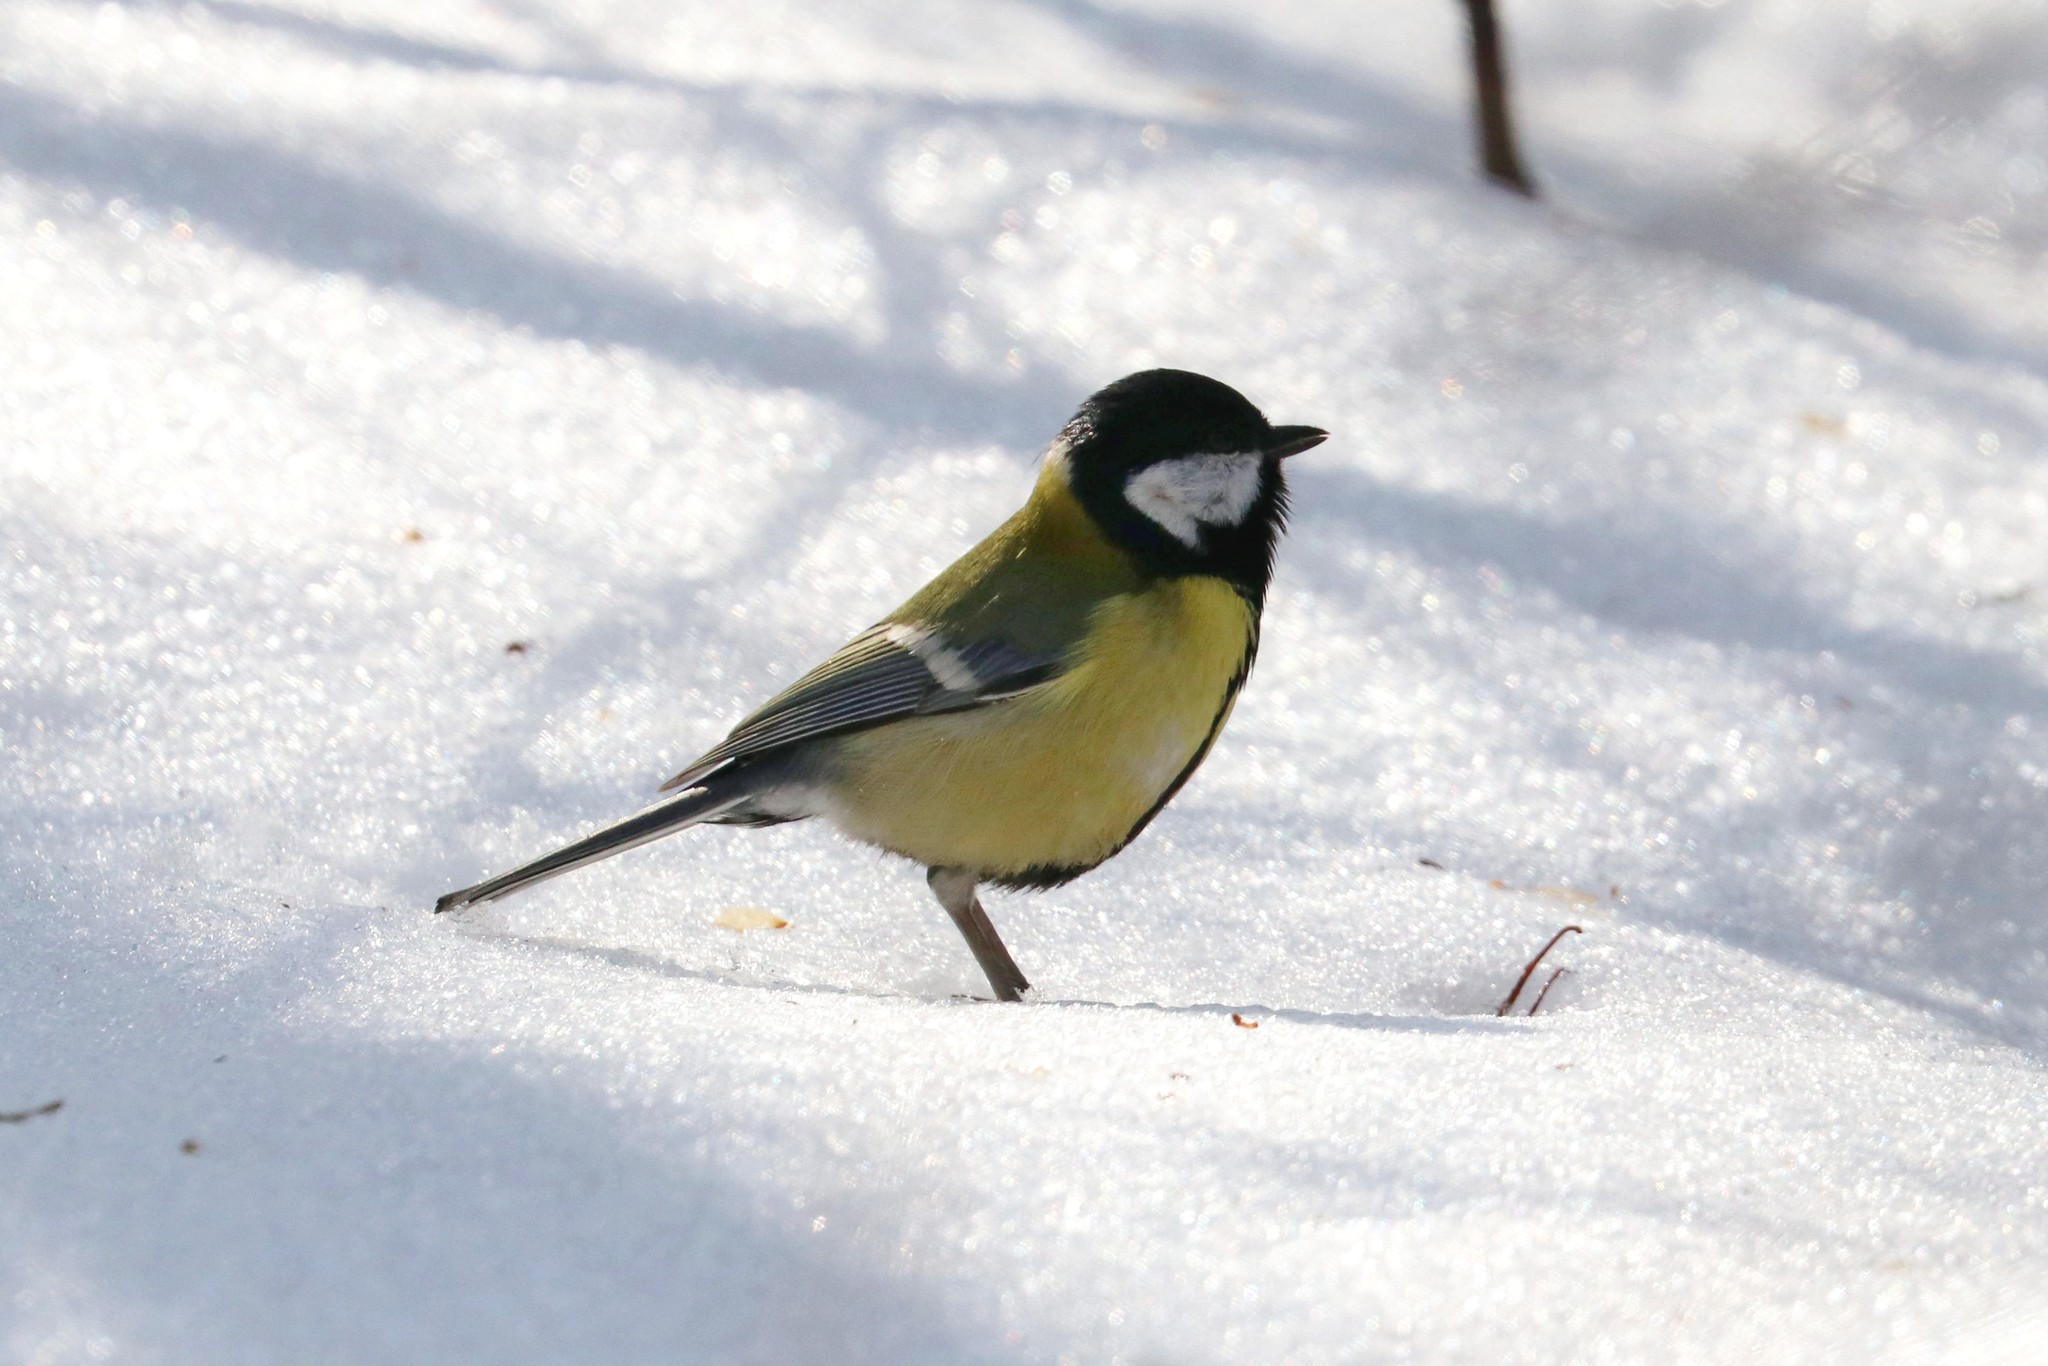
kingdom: Animalia
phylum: Chordata
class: Aves
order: Passeriformes
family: Paridae
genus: Parus
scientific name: Parus major
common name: Great tit
